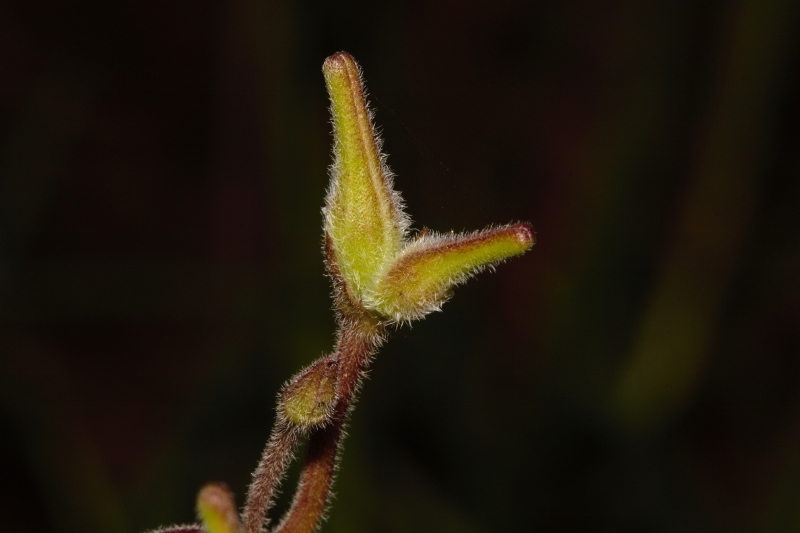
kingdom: Plantae
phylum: Tracheophyta
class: Magnoliopsida
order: Gentianales
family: Apocynaceae
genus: Margaretta
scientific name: Margaretta rosea
